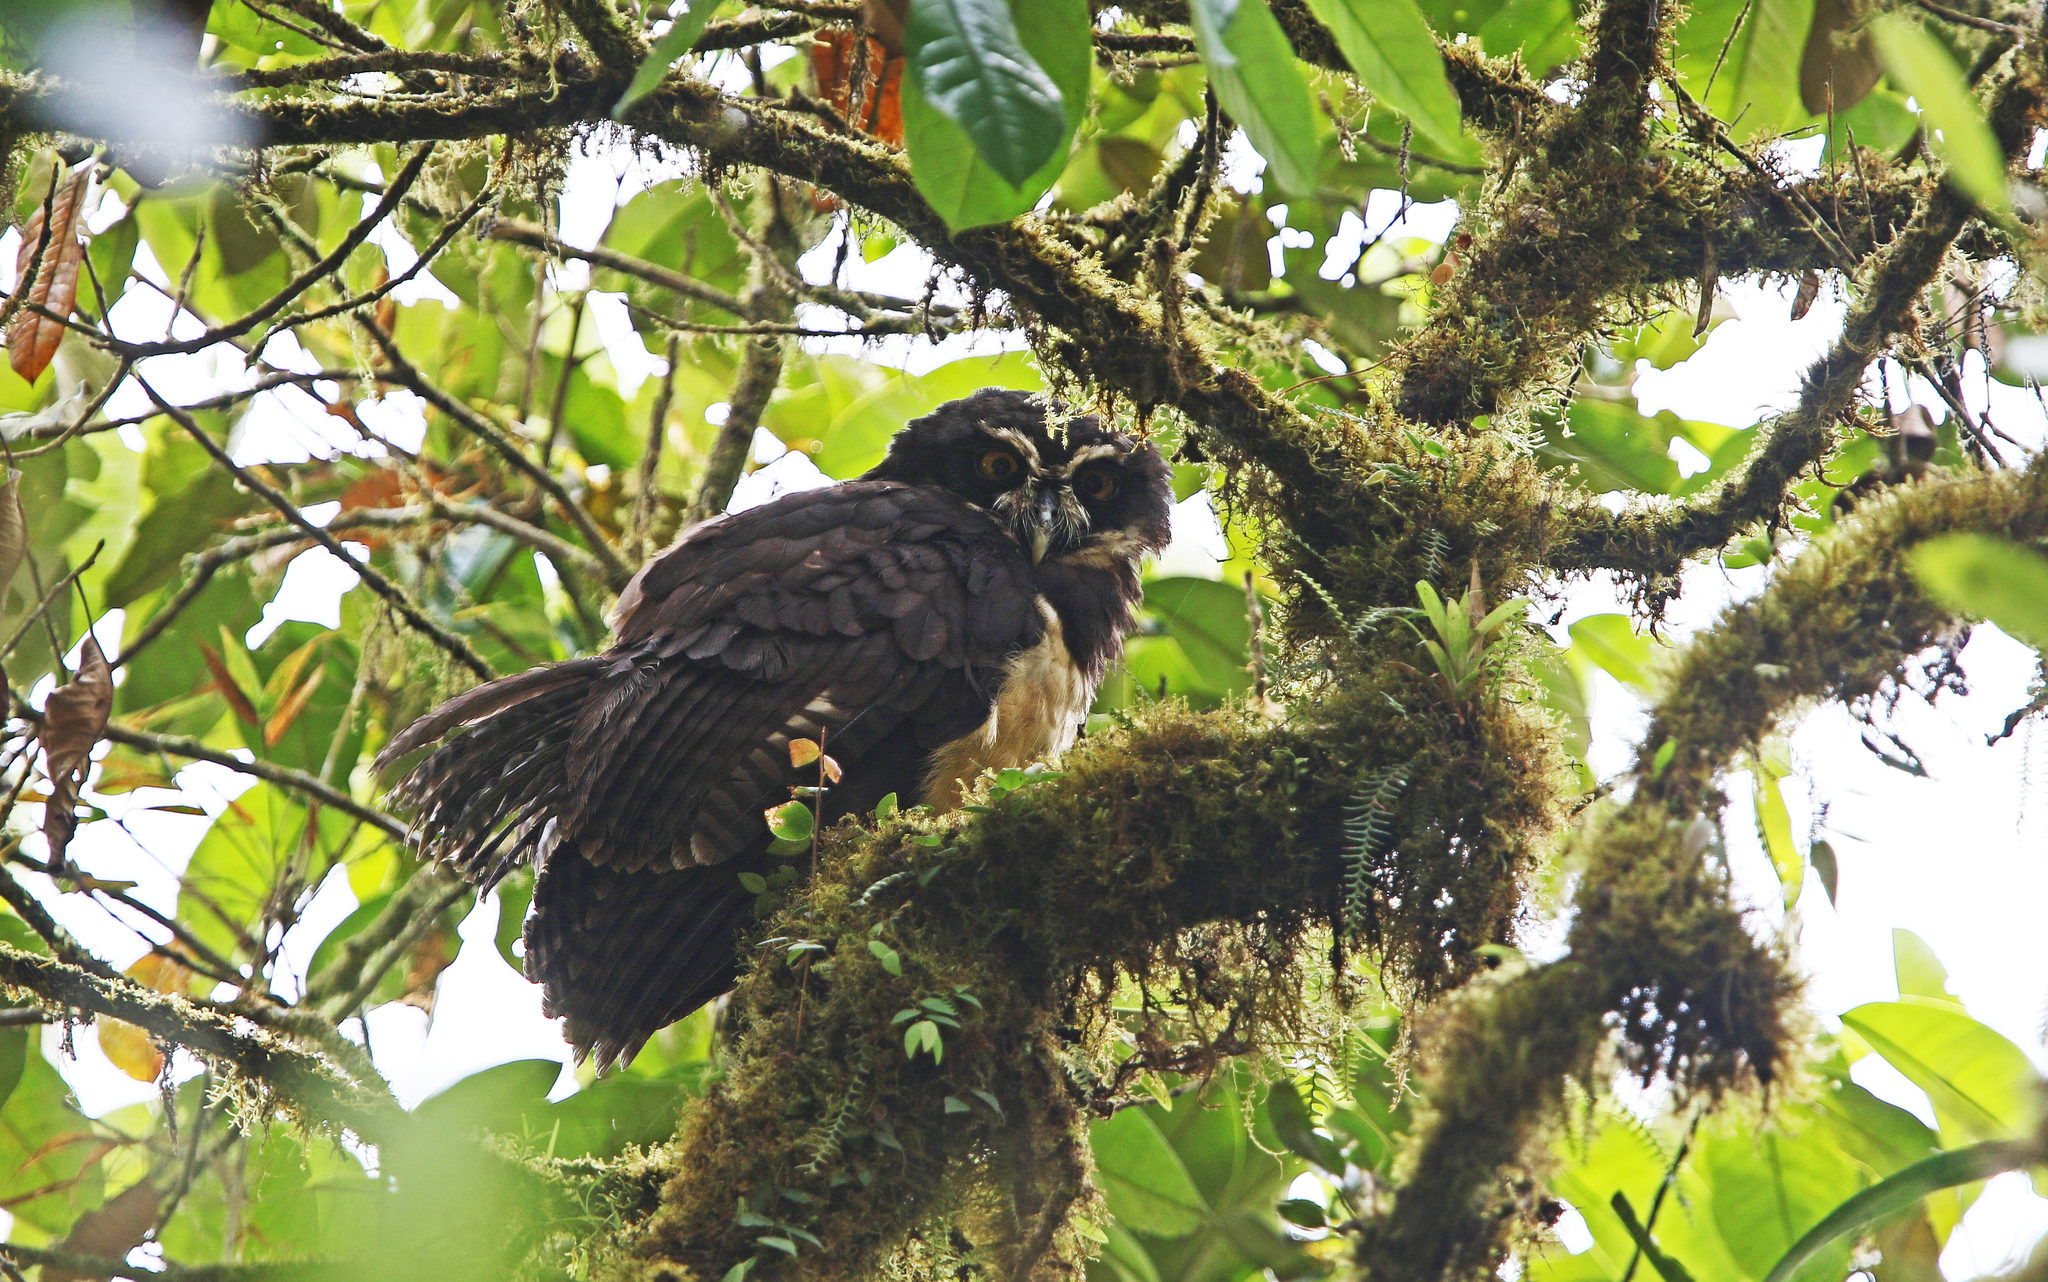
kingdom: Animalia
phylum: Chordata
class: Aves
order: Strigiformes
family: Strigidae
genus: Pulsatrix
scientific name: Pulsatrix perspicillata
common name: Spectacled owl
